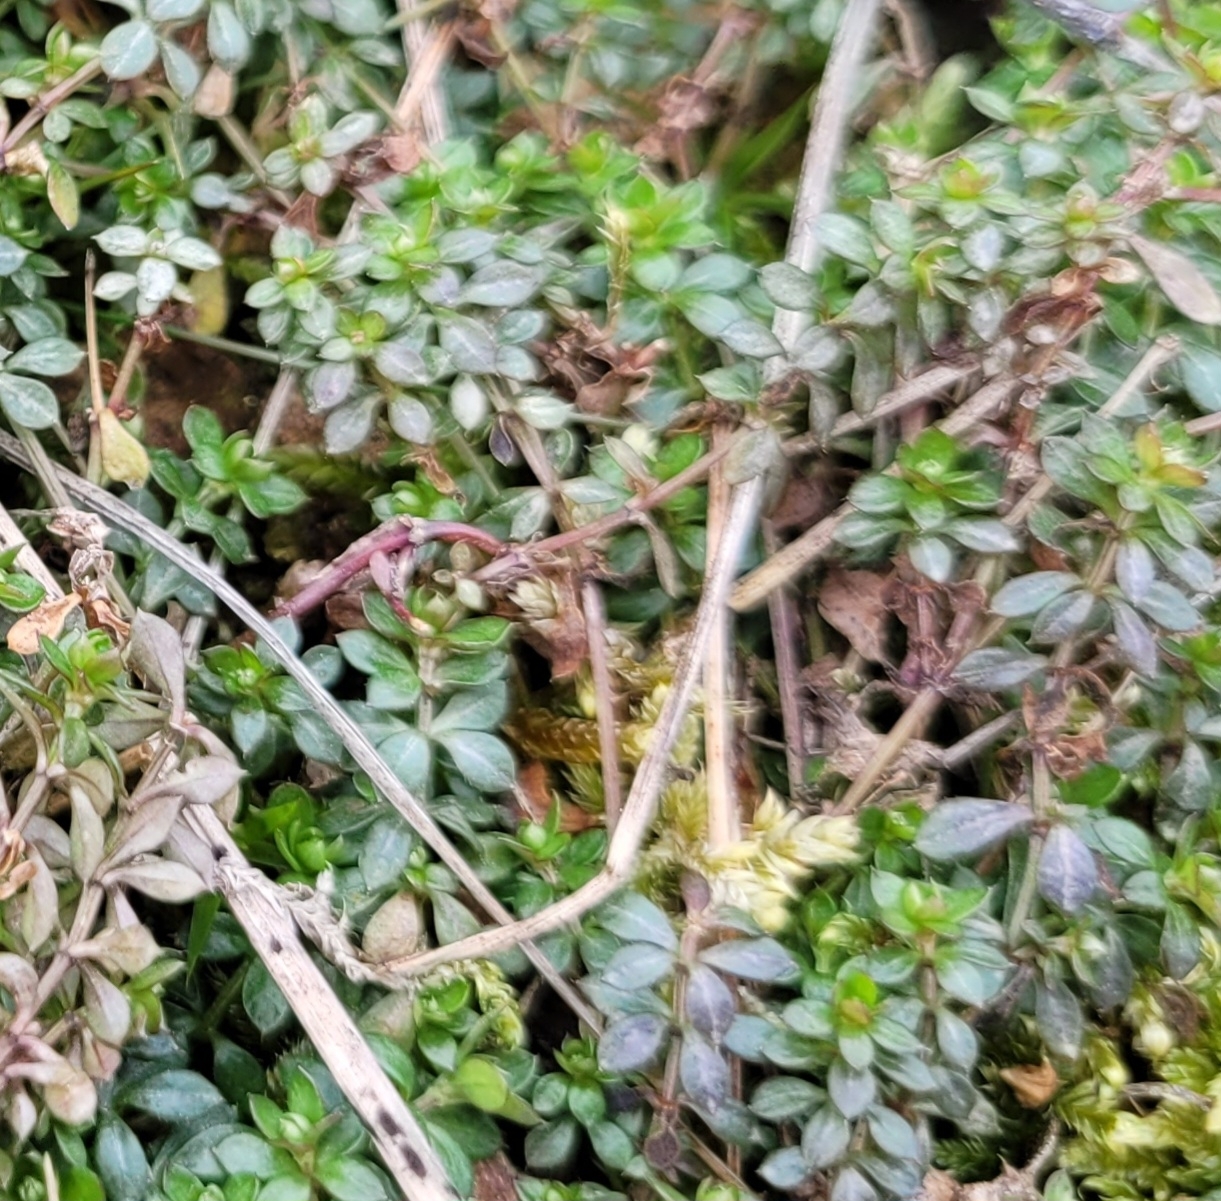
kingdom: Plantae
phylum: Tracheophyta
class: Magnoliopsida
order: Gentianales
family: Rubiaceae
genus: Galium
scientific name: Galium saxatile
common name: Heath bedstraw
